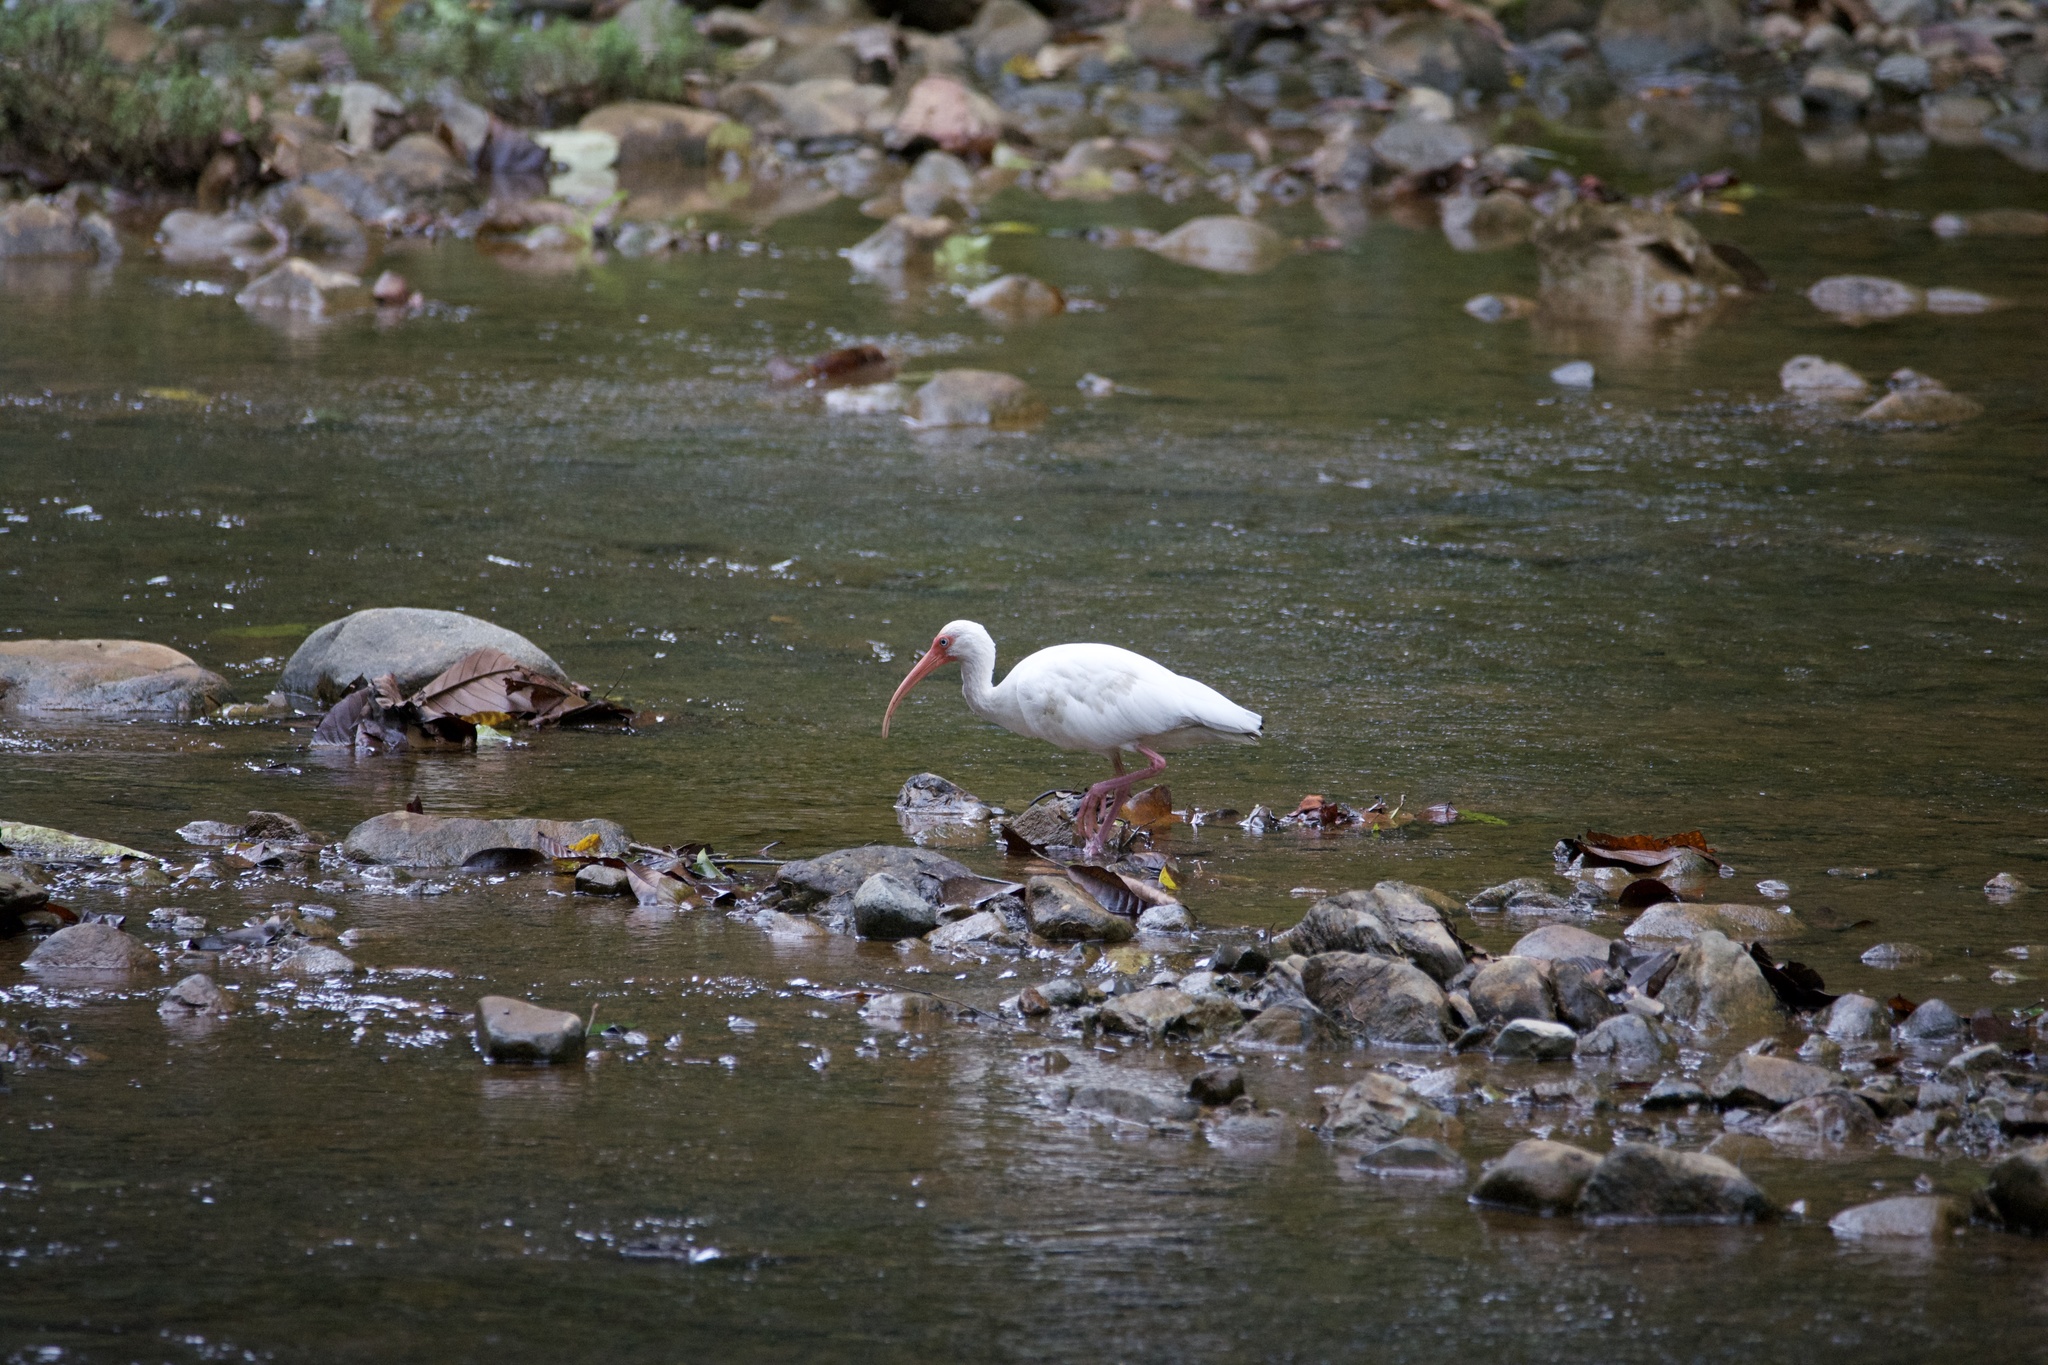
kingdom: Animalia
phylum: Chordata
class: Aves
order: Pelecaniformes
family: Threskiornithidae
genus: Eudocimus
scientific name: Eudocimus albus
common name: White ibis
